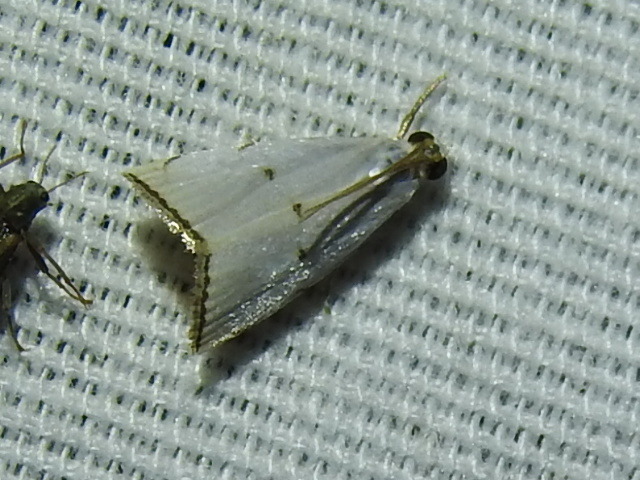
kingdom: Animalia
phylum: Arthropoda
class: Insecta
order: Lepidoptera
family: Crambidae
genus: Argyria
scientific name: Argyria pusillalis
